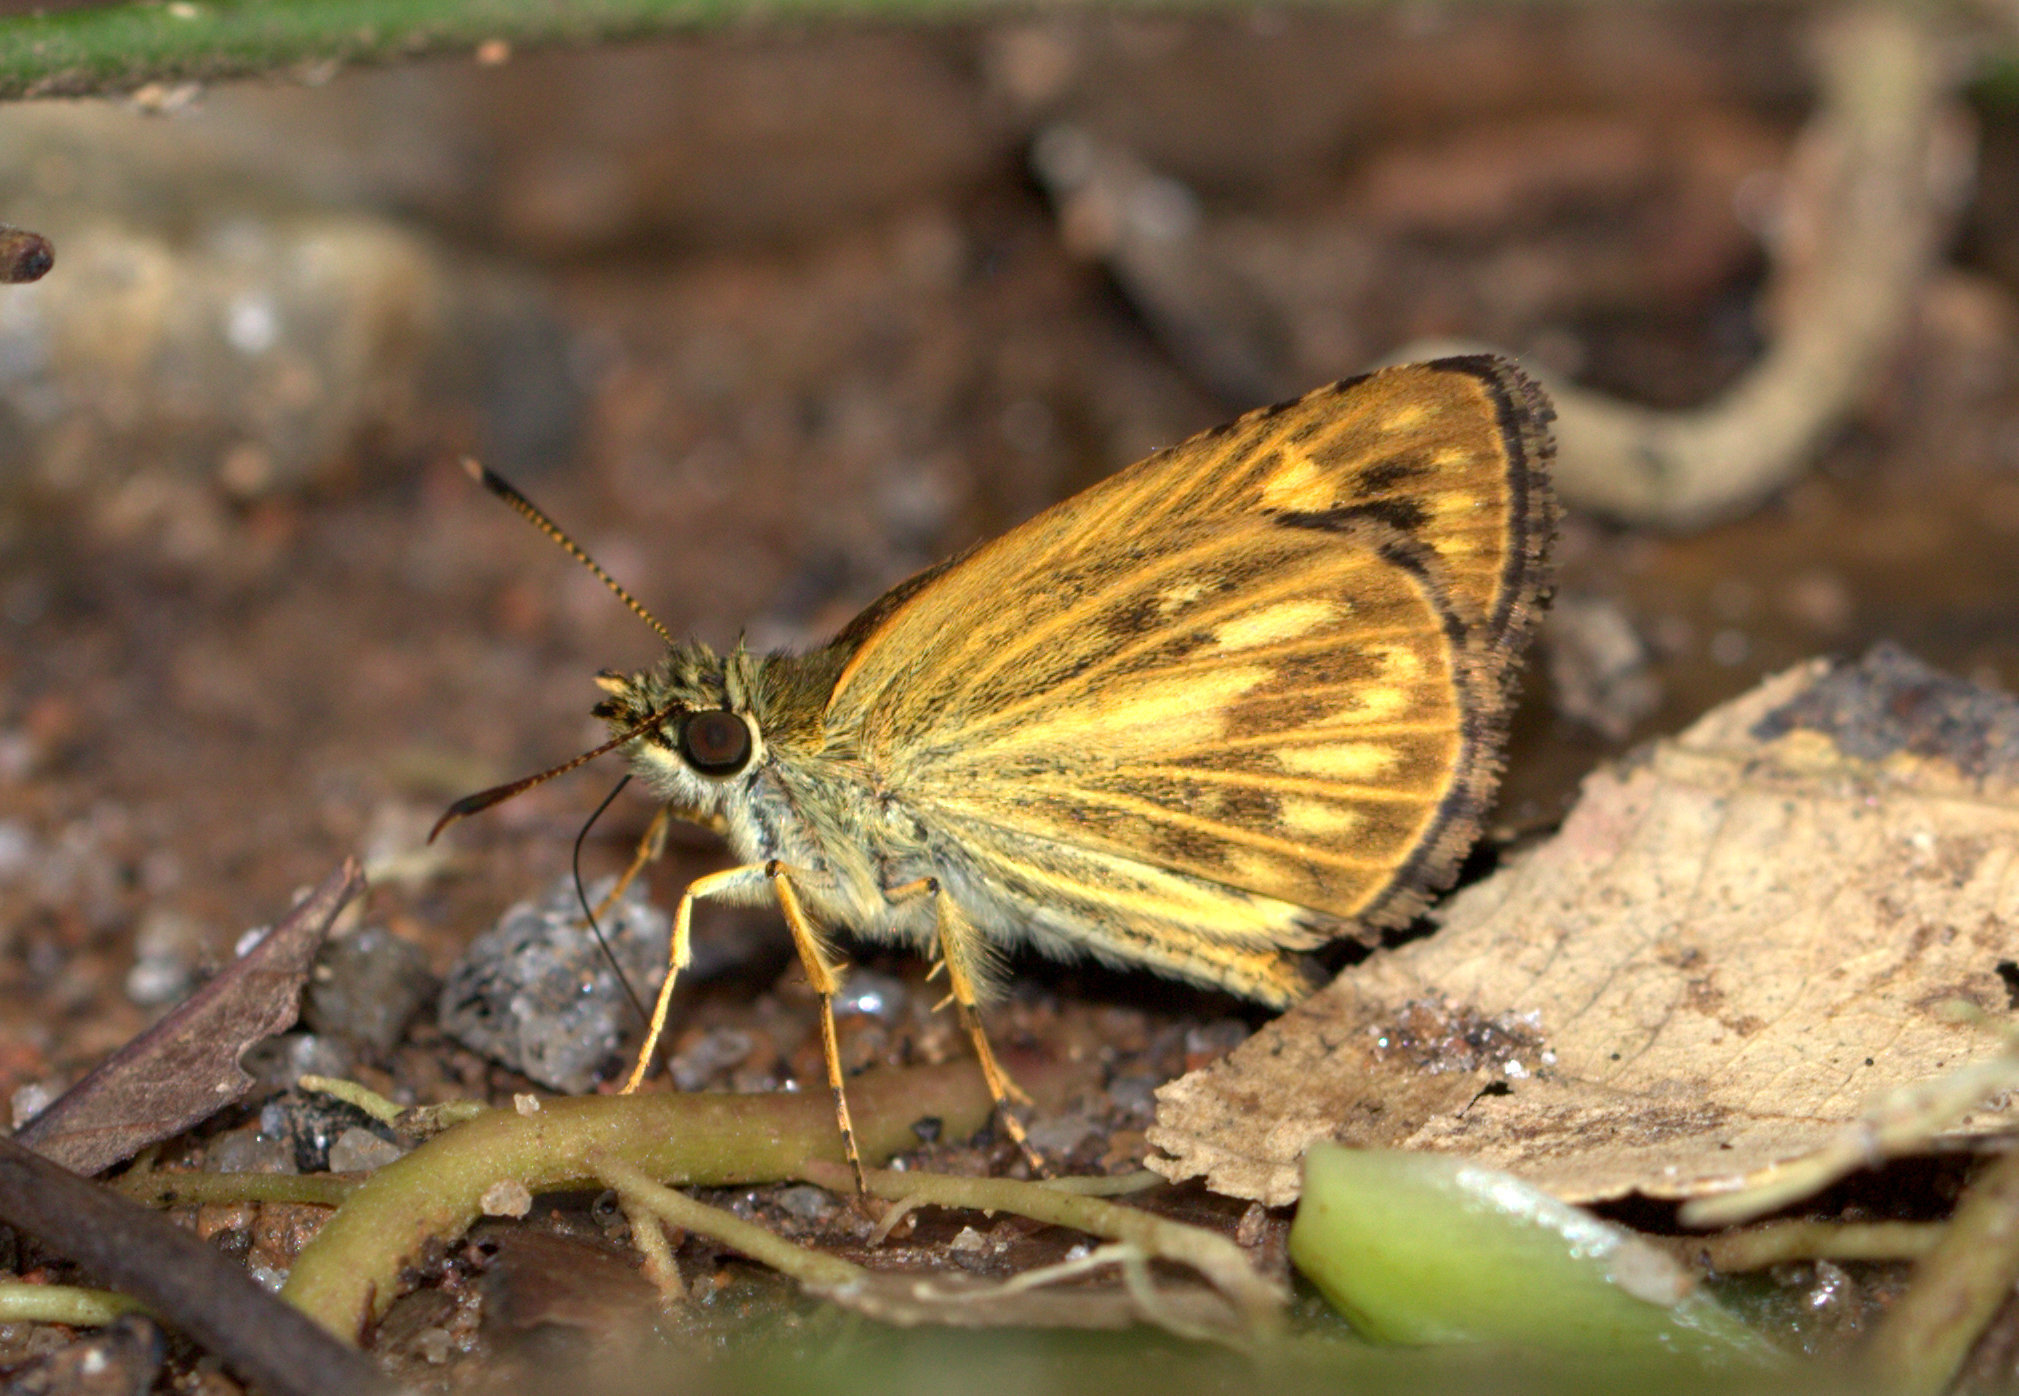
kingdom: Animalia
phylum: Arthropoda
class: Insecta
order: Lepidoptera
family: Hesperiidae
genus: Baracus
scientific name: Baracus vittatus
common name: Hedge-hopper
